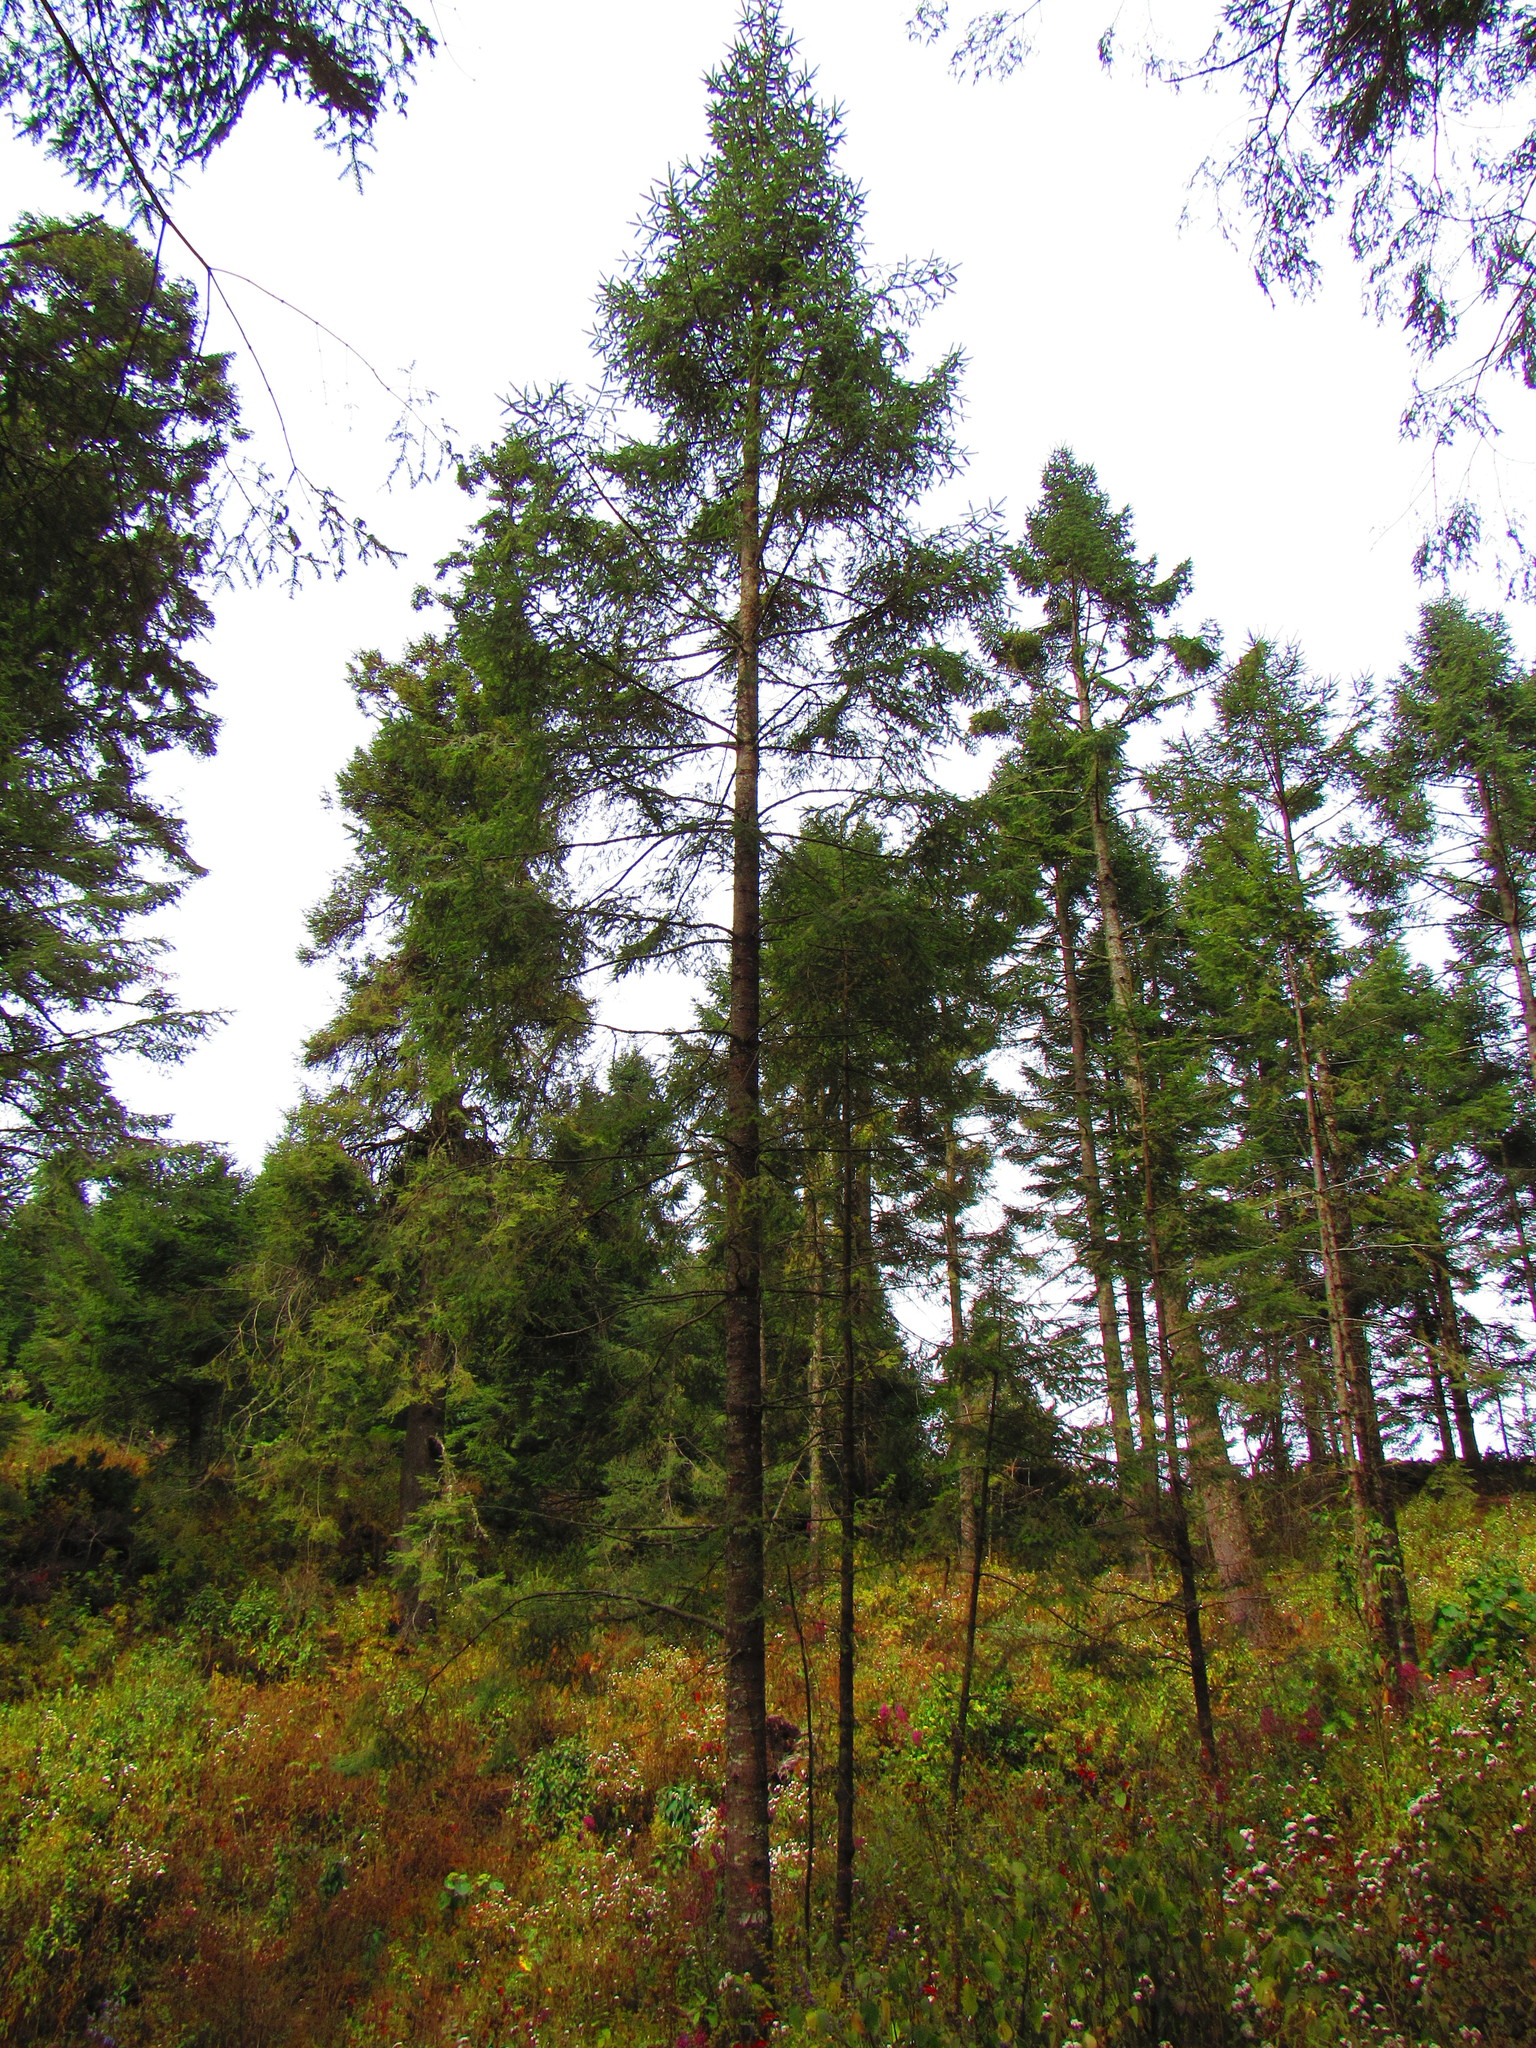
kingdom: Plantae
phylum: Tracheophyta
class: Pinopsida
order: Pinales
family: Pinaceae
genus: Abies
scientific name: Abies religiosa
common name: Sacred fir
